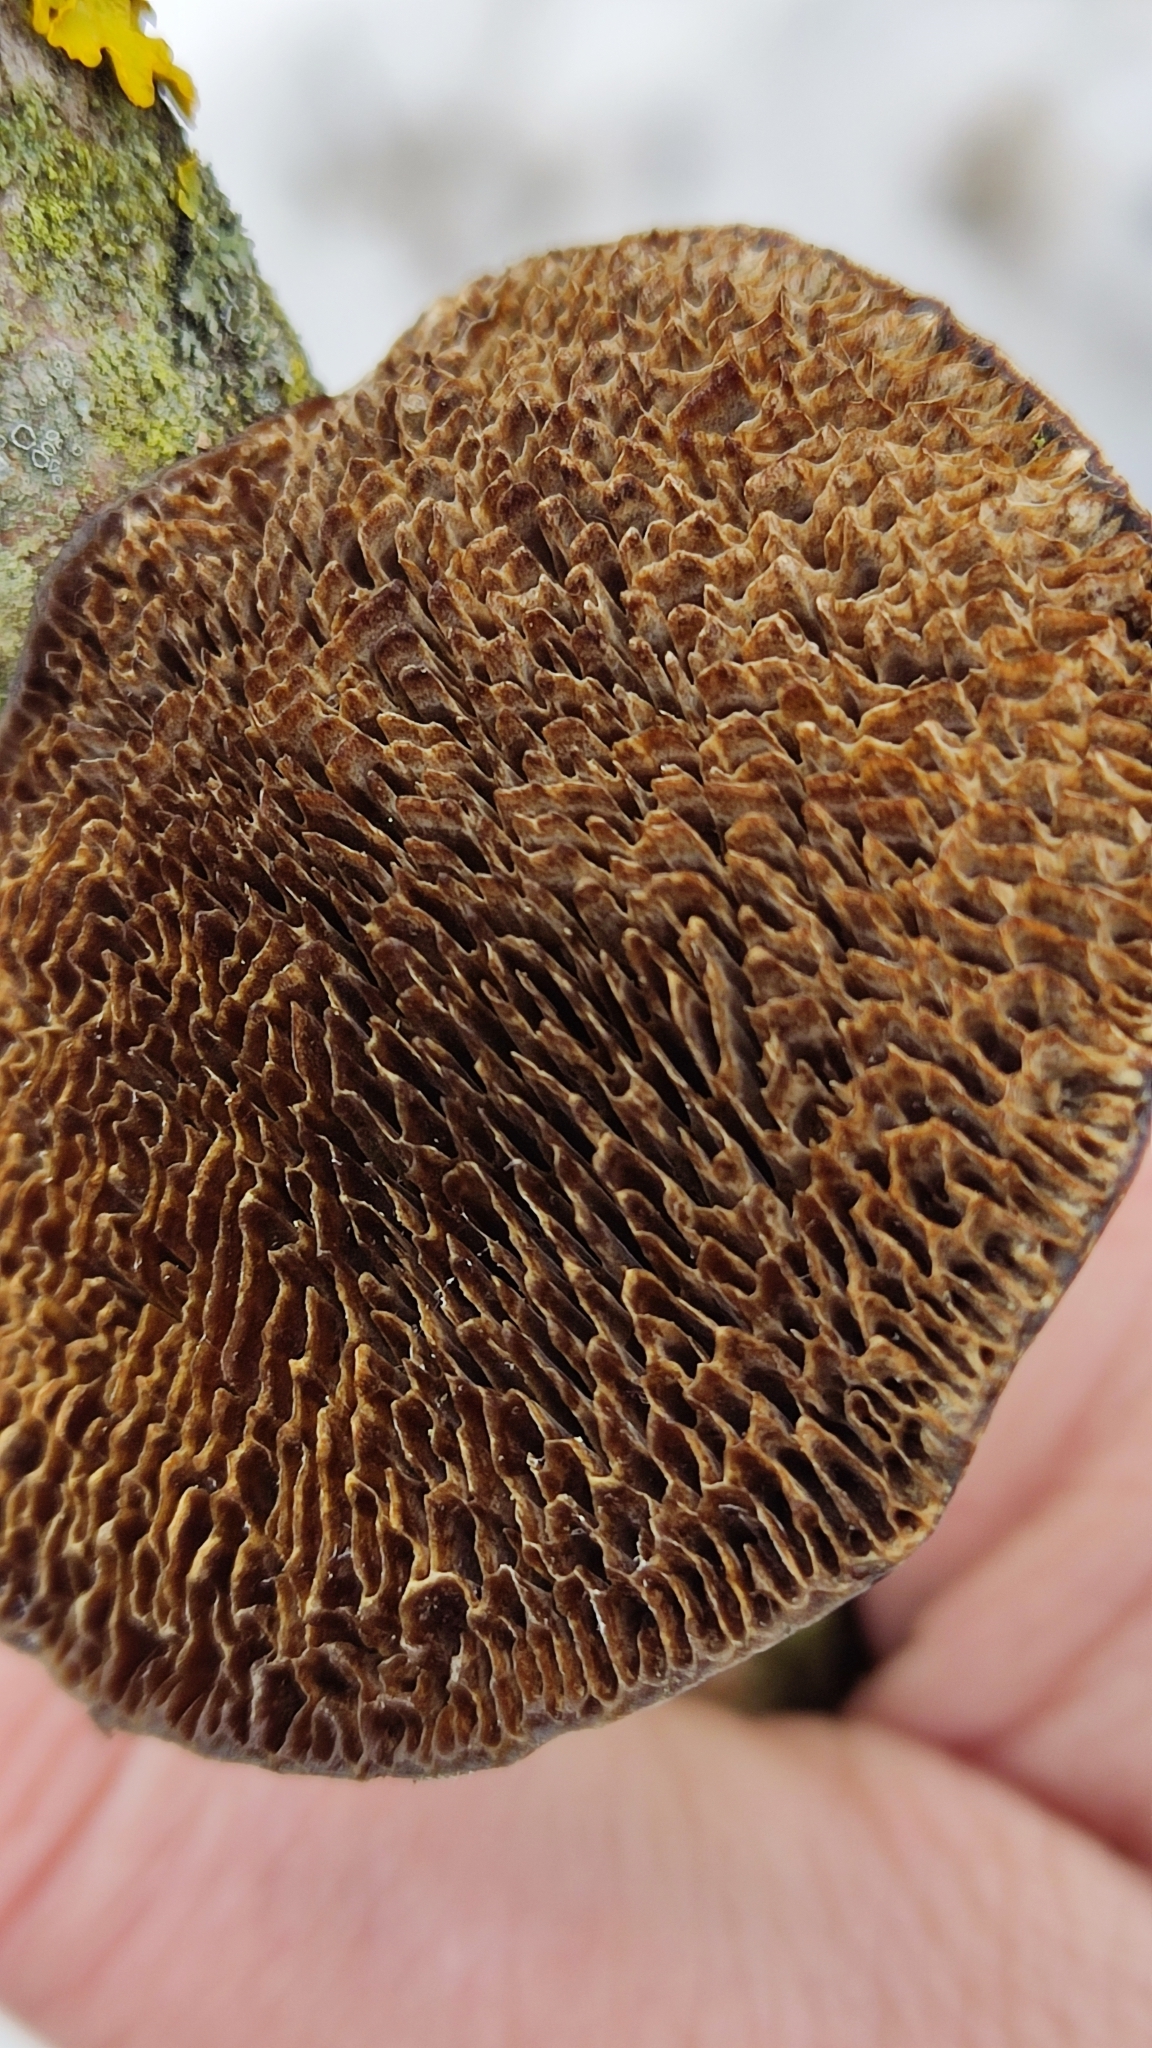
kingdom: Fungi
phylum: Basidiomycota
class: Agaricomycetes
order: Polyporales
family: Polyporaceae
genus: Daedaleopsis
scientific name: Daedaleopsis confragosa
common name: Blushing bracket
